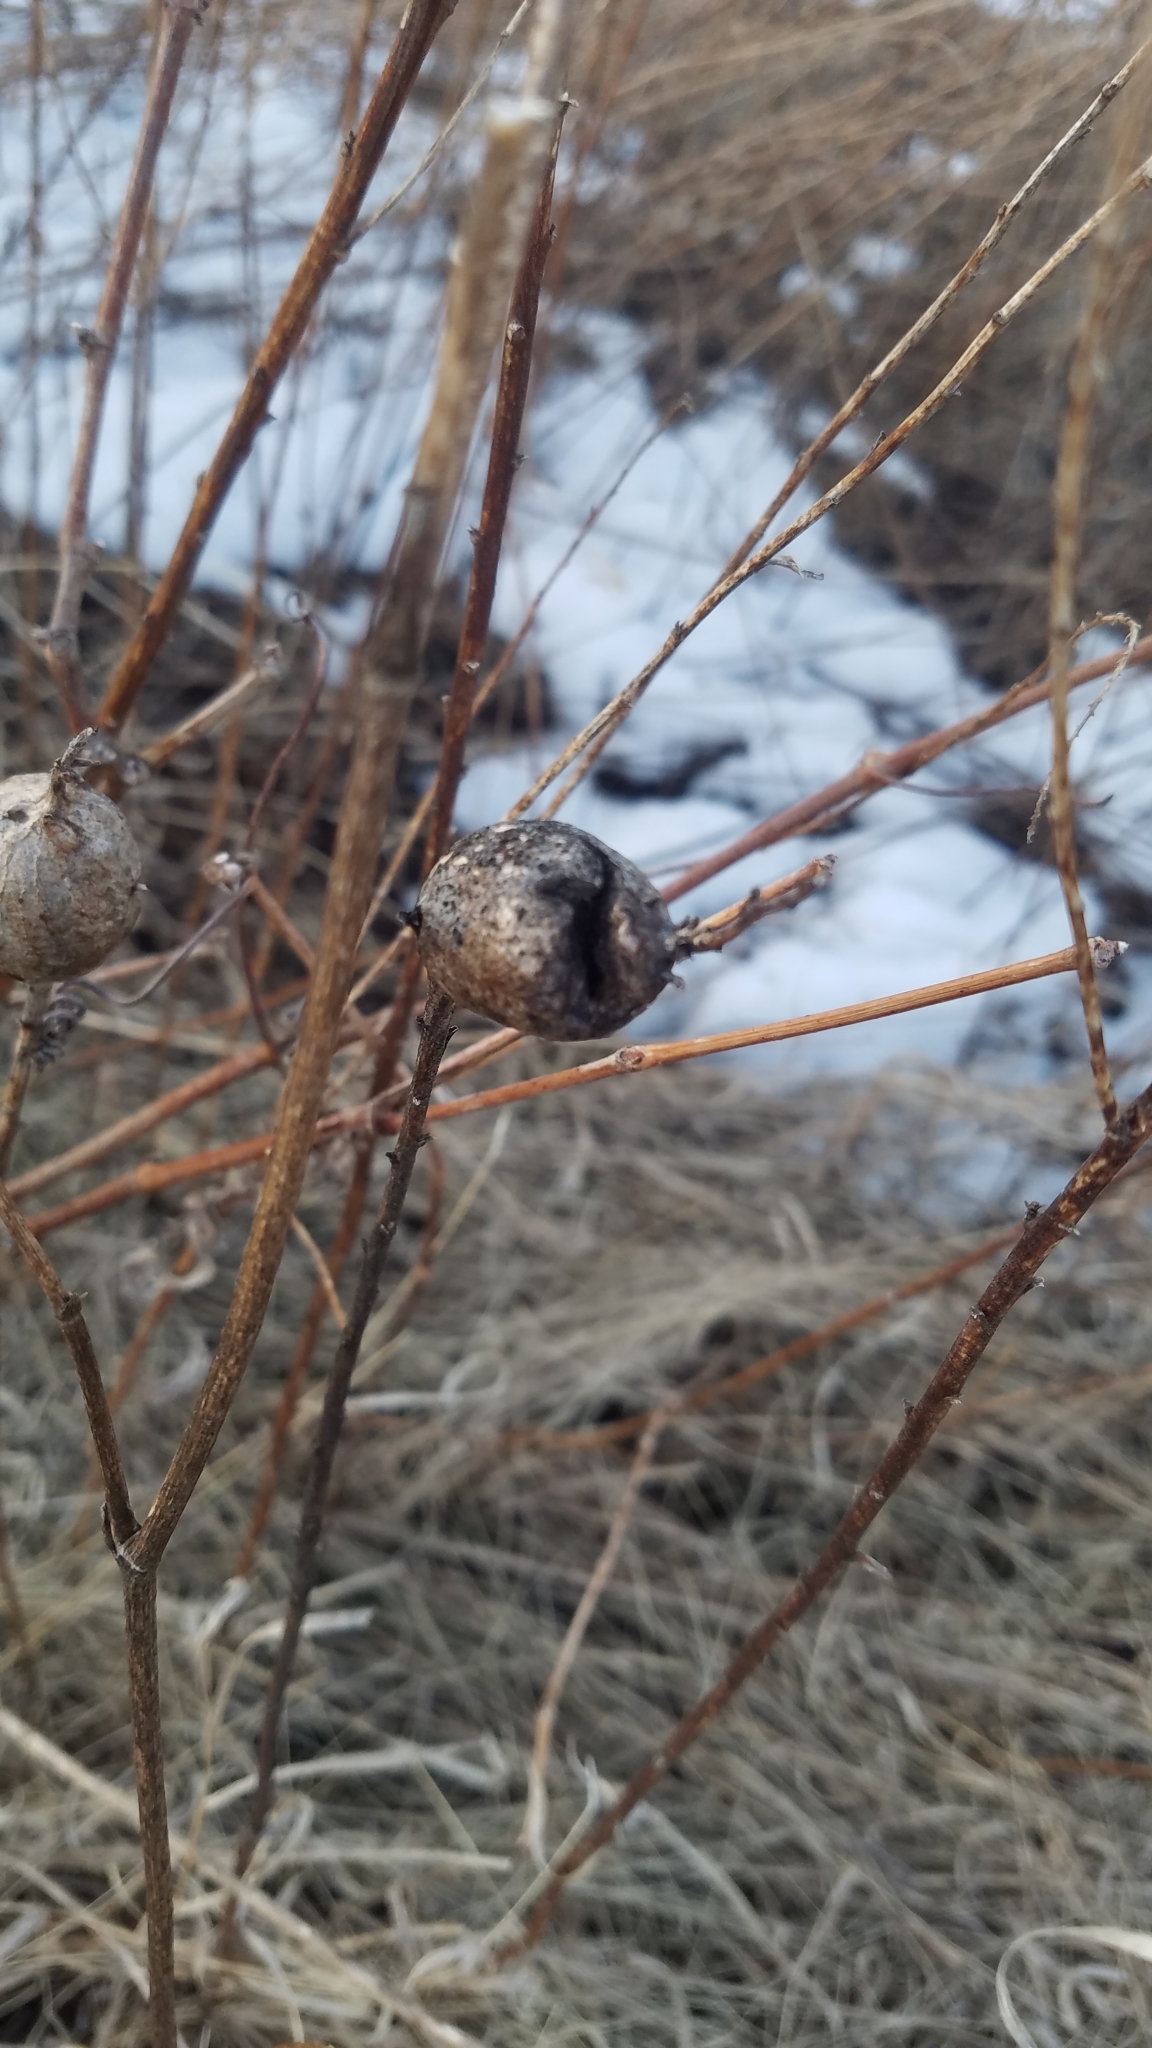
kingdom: Animalia
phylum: Arthropoda
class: Insecta
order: Diptera
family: Tephritidae
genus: Eurosta
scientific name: Eurosta solidaginis
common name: Goldenrod gall fly
